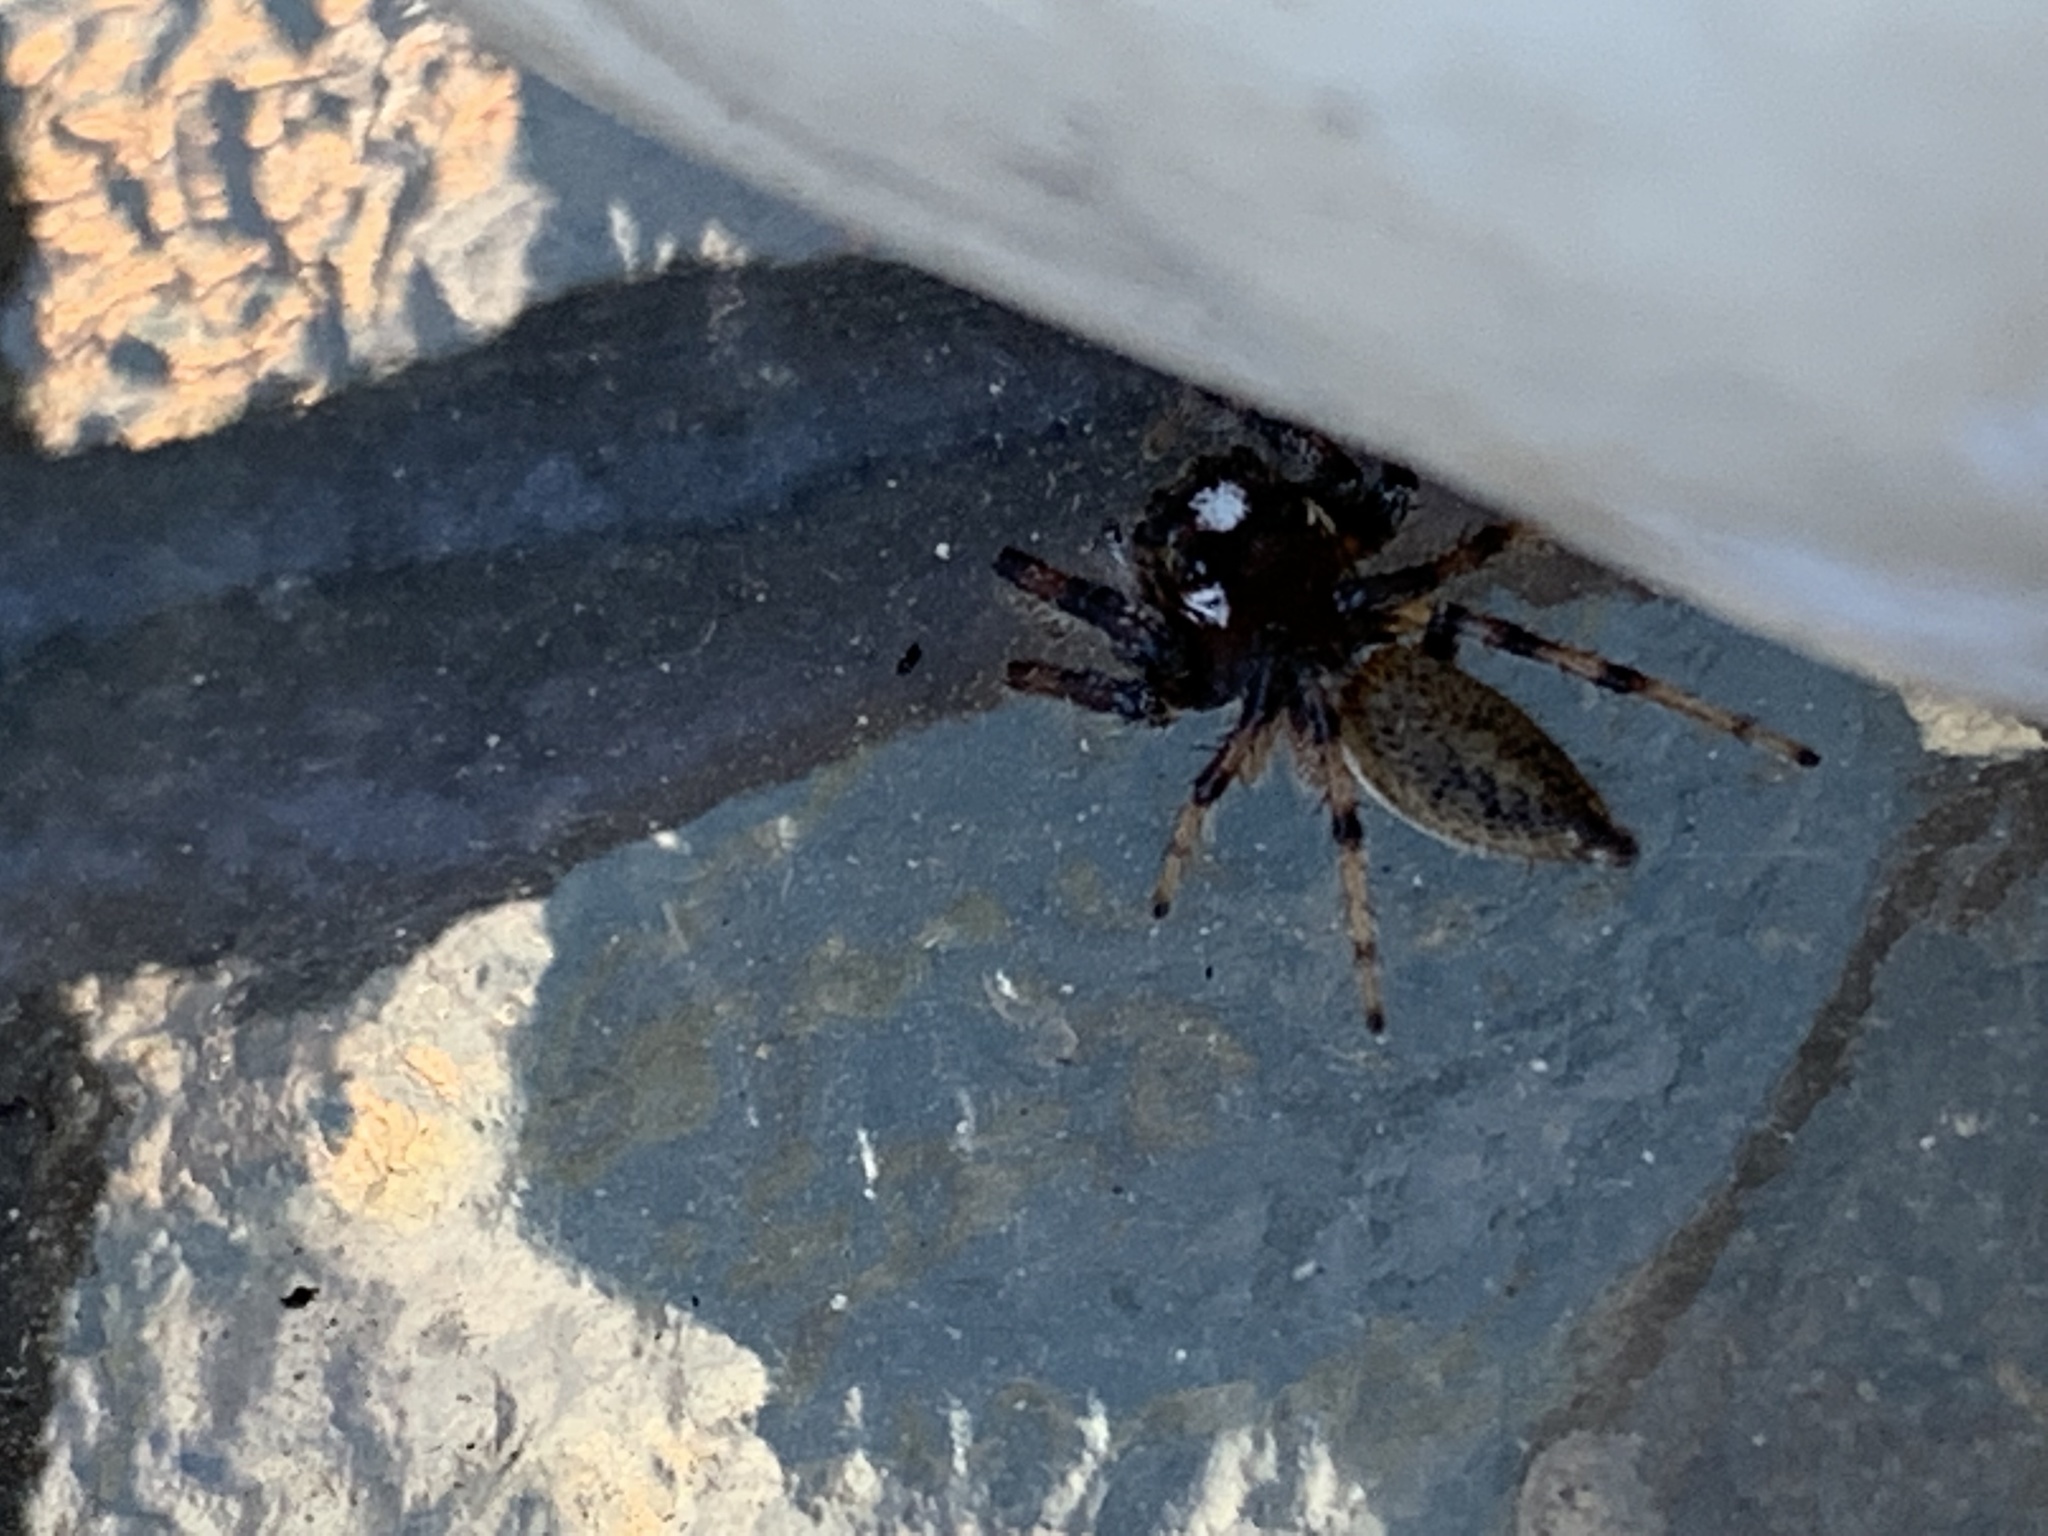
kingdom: Animalia
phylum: Arthropoda
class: Arachnida
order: Araneae
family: Salticidae
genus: Colonus
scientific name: Colonus hesperus
